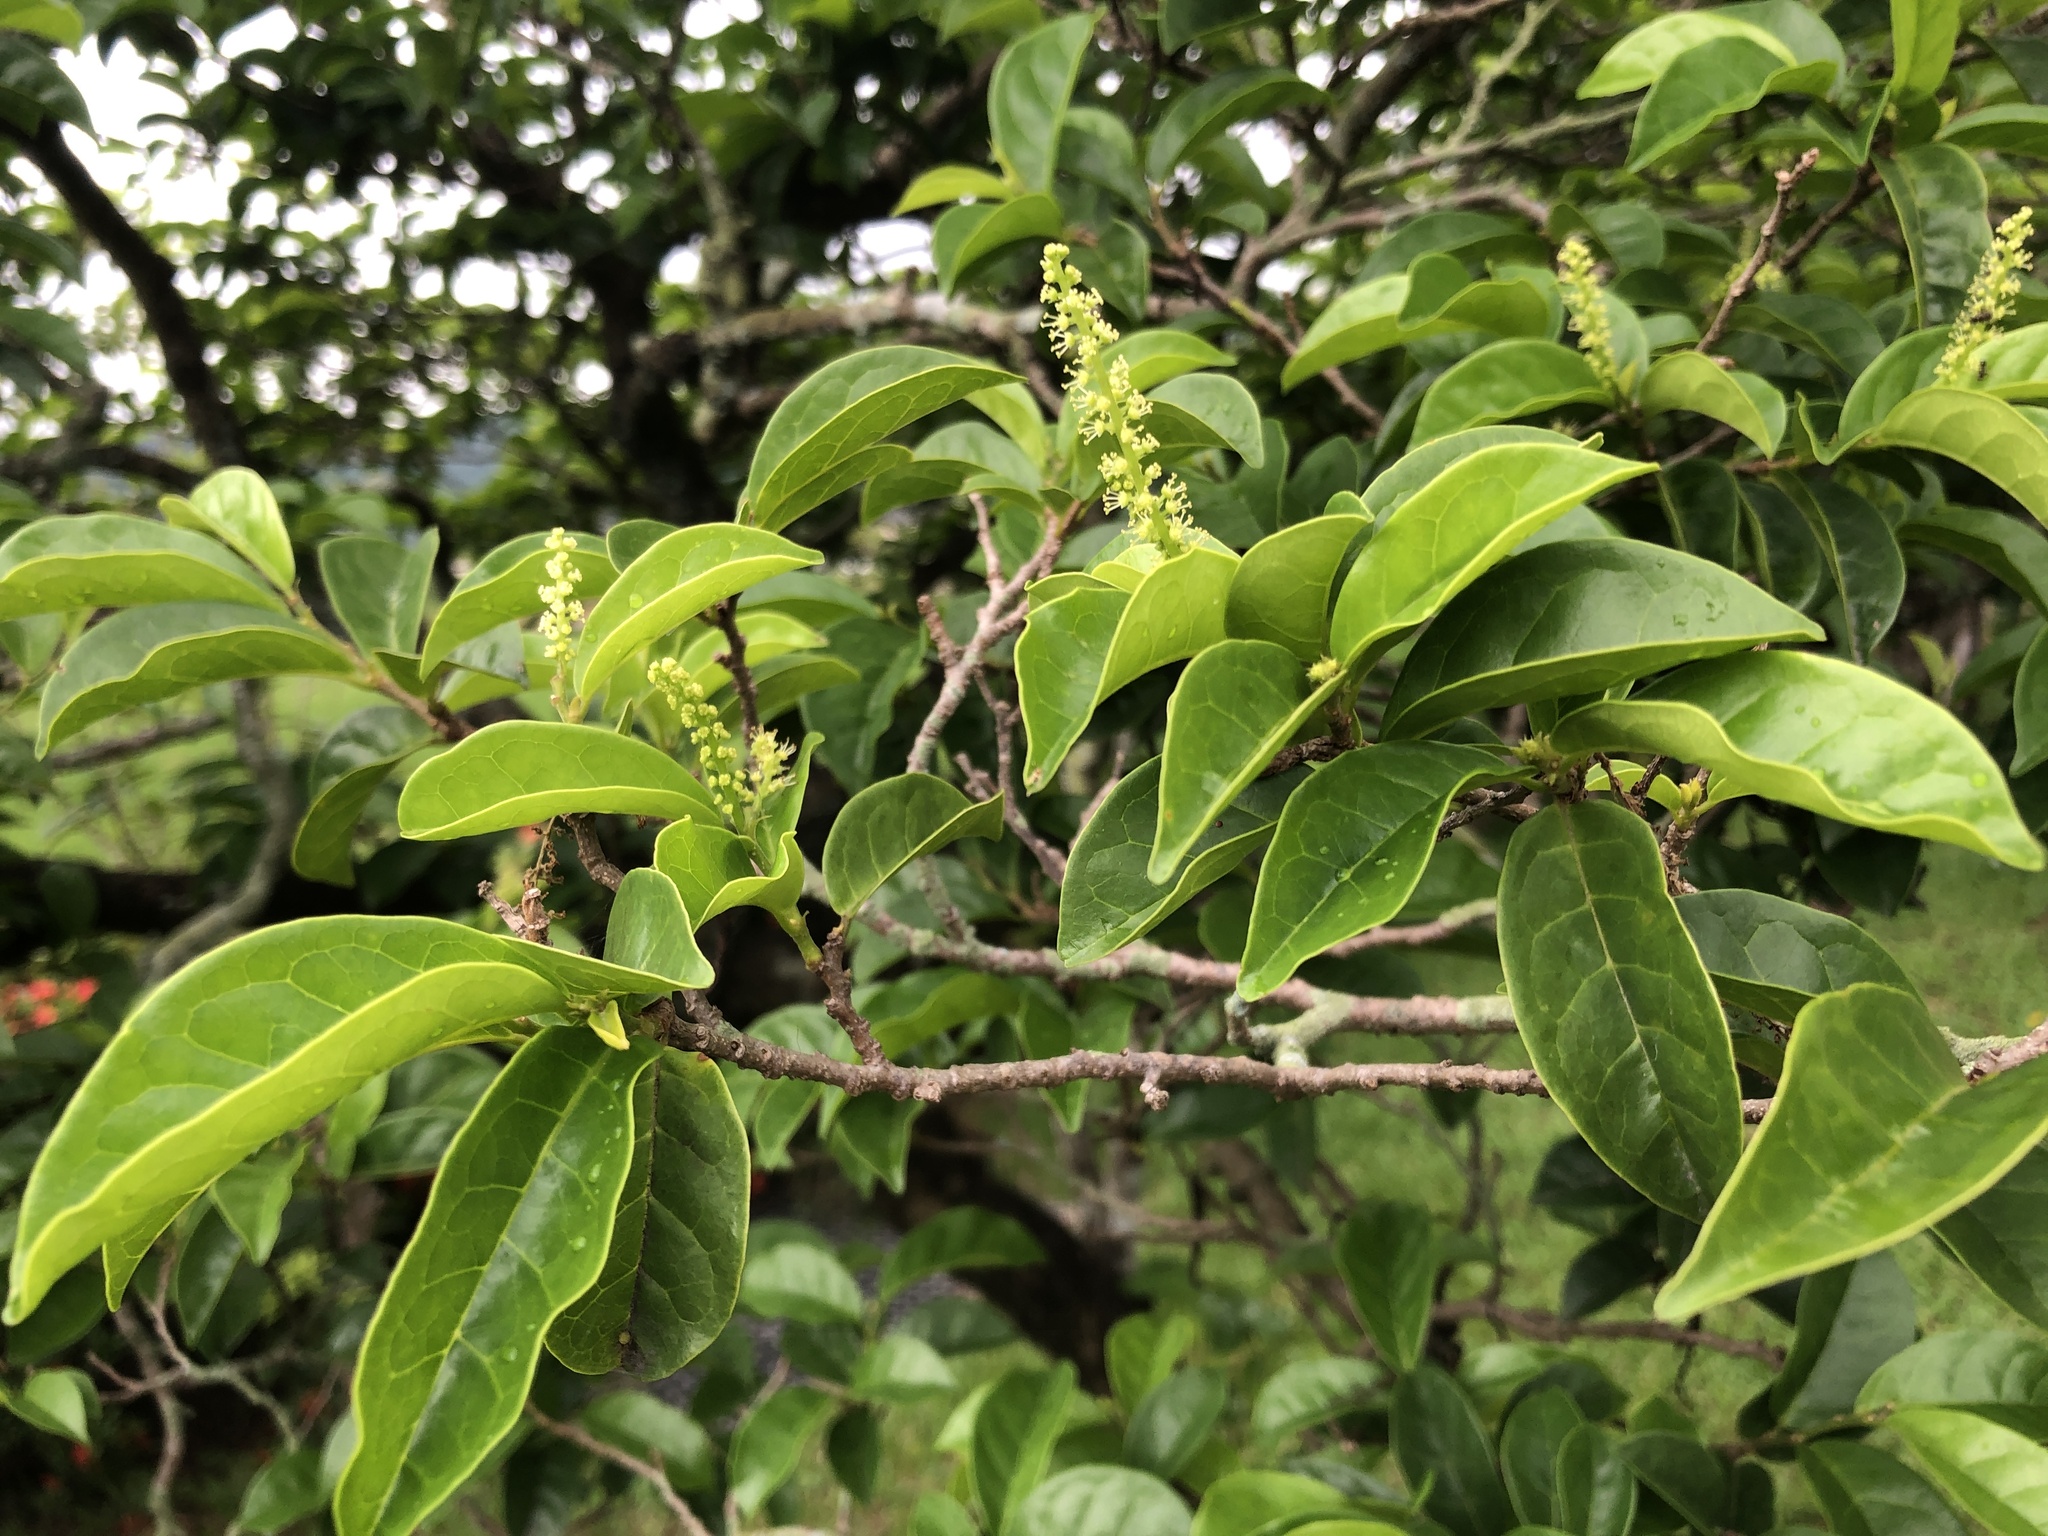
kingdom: Plantae
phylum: Tracheophyta
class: Magnoliopsida
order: Malpighiales
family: Phyllanthaceae
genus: Antidesma
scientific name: Antidesma montanum
